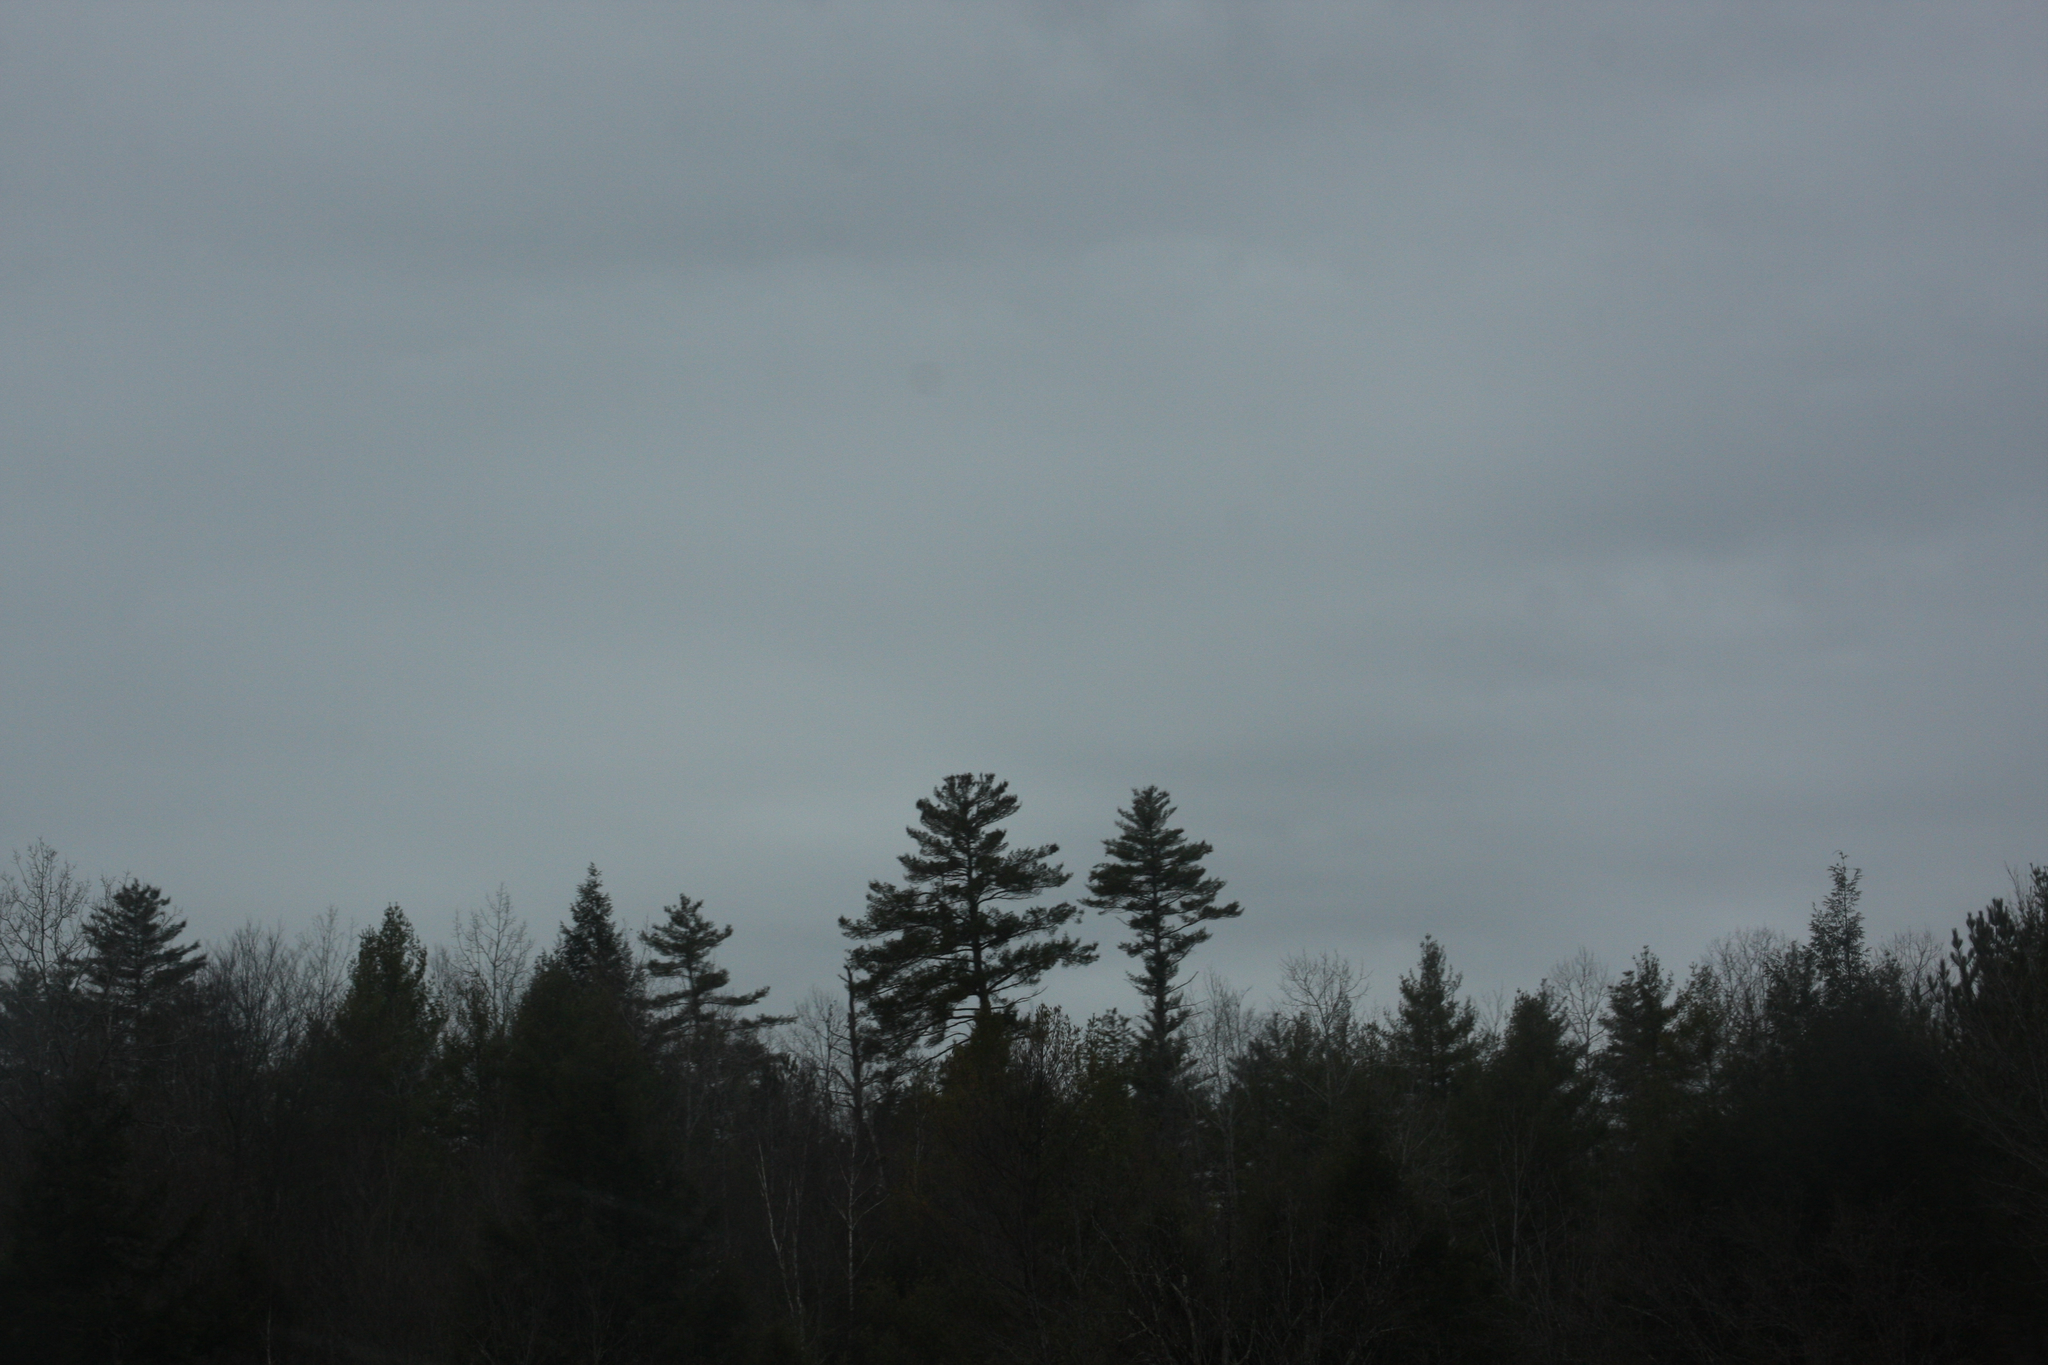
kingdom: Plantae
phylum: Tracheophyta
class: Pinopsida
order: Pinales
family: Pinaceae
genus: Pinus
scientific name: Pinus strobus
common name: Weymouth pine
